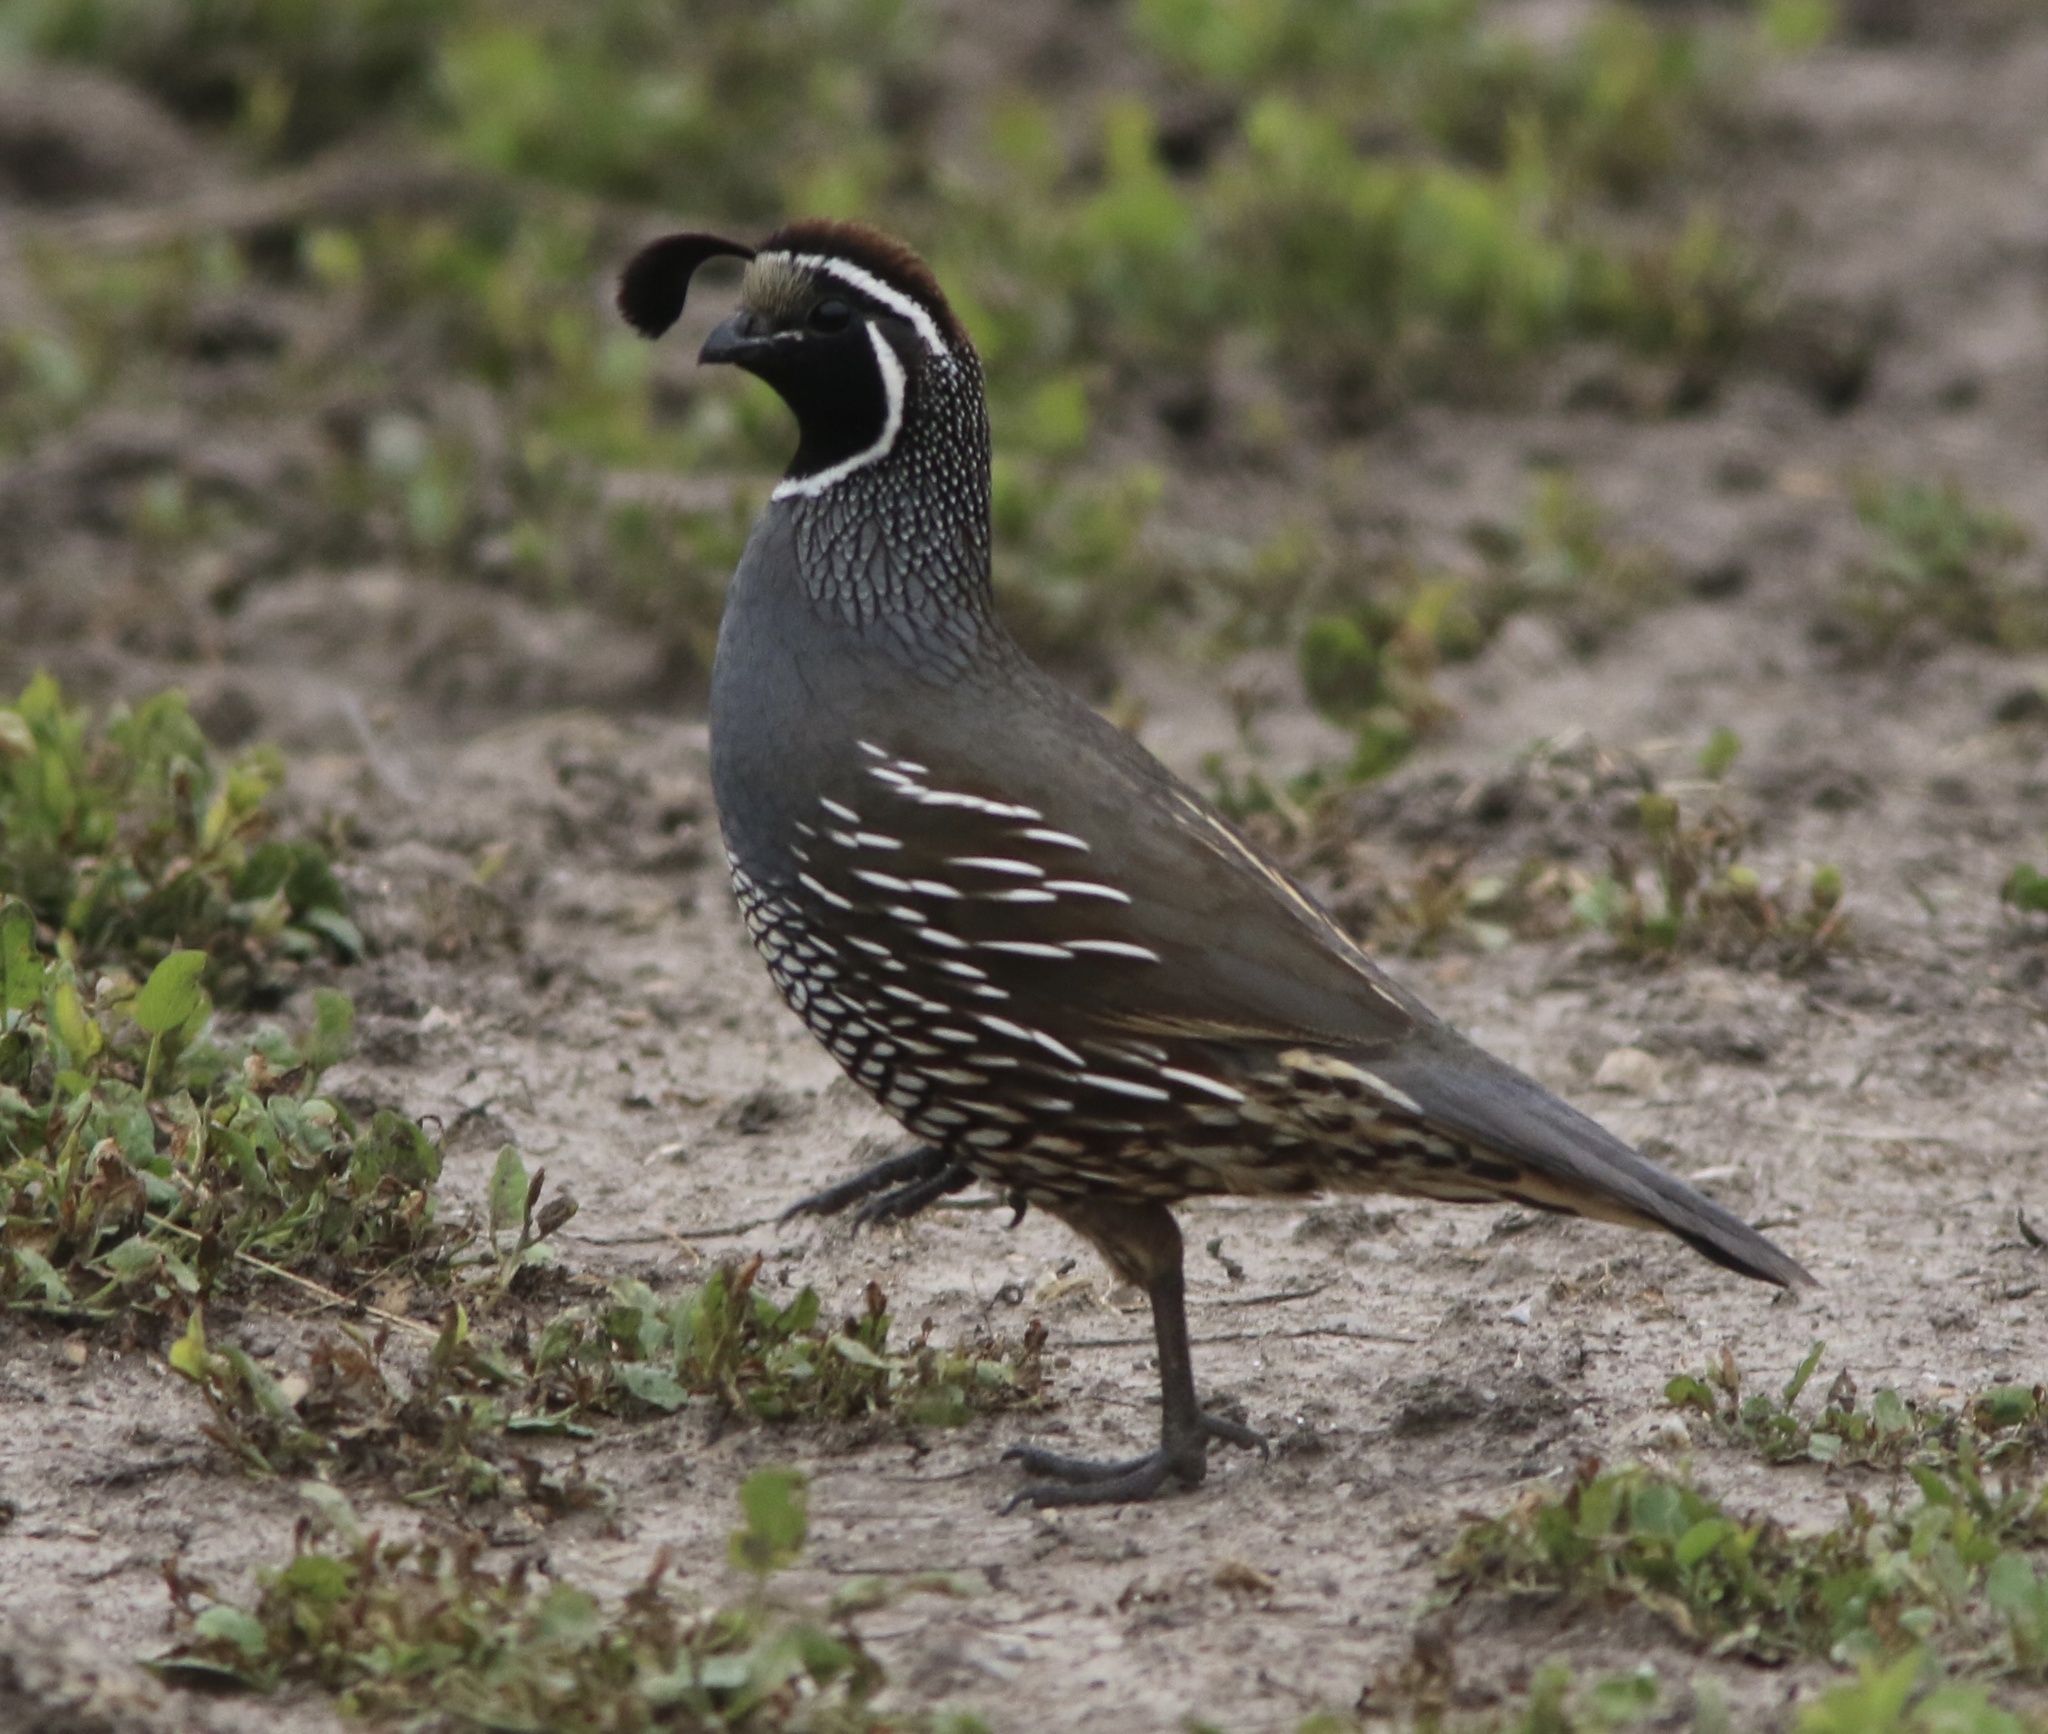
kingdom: Animalia
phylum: Chordata
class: Aves
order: Galliformes
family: Odontophoridae
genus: Callipepla
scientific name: Callipepla californica
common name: California quail
